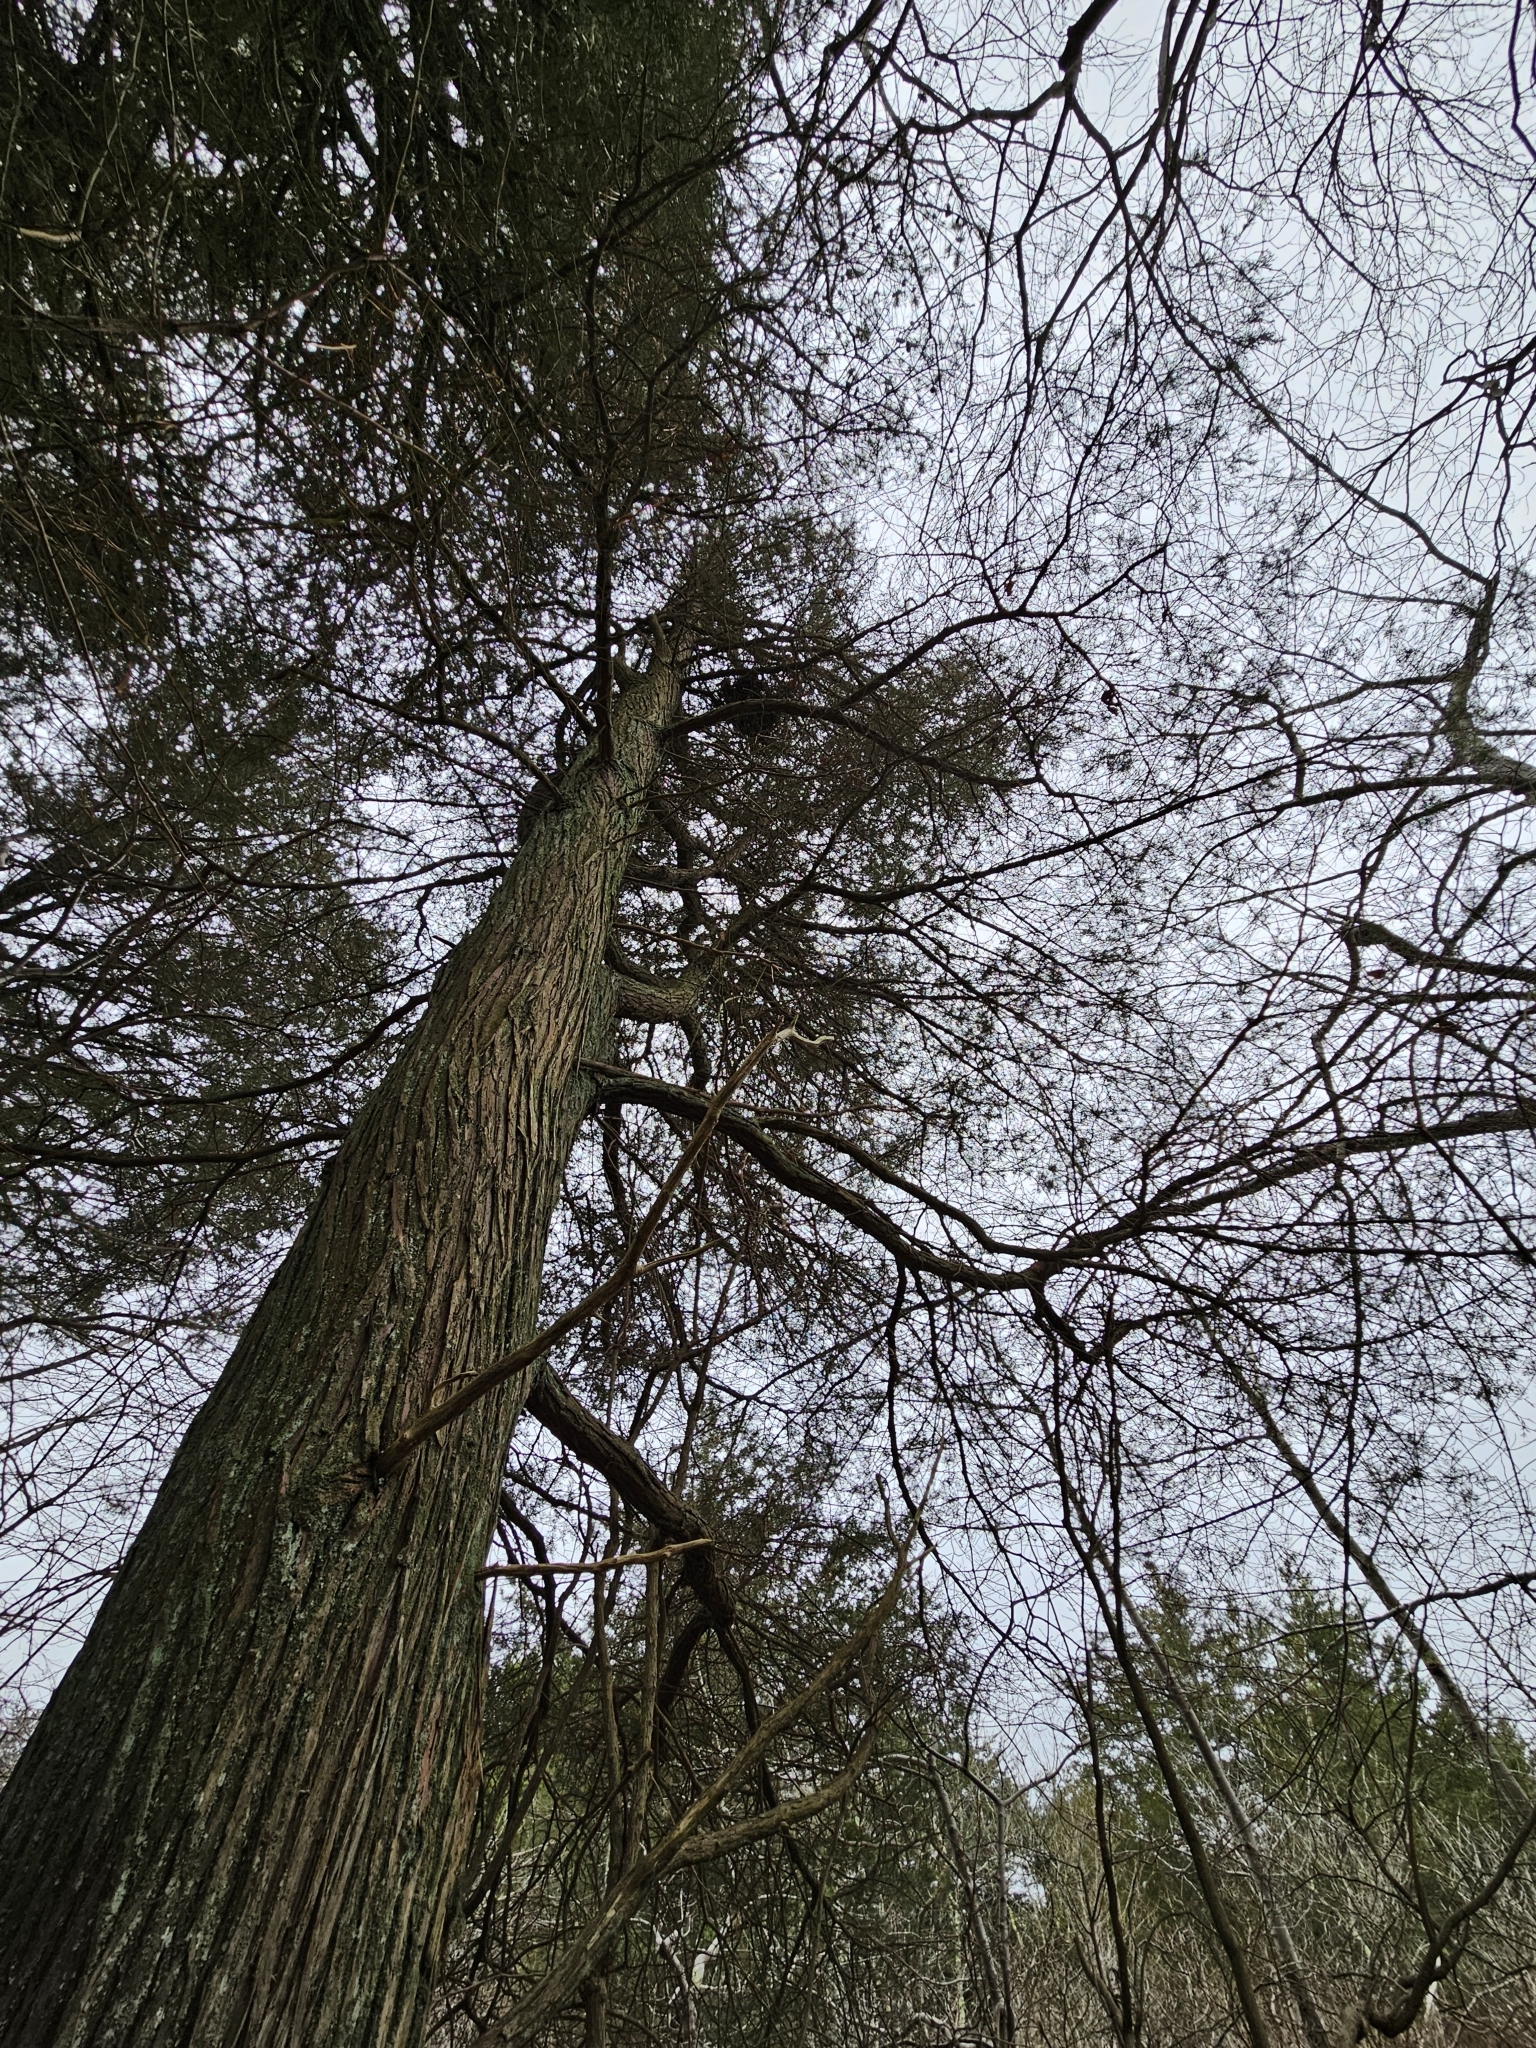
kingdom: Plantae
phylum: Tracheophyta
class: Pinopsida
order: Pinales
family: Cupressaceae
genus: Chamaecyparis
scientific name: Chamaecyparis thyoides
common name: Atlantic white cedar
